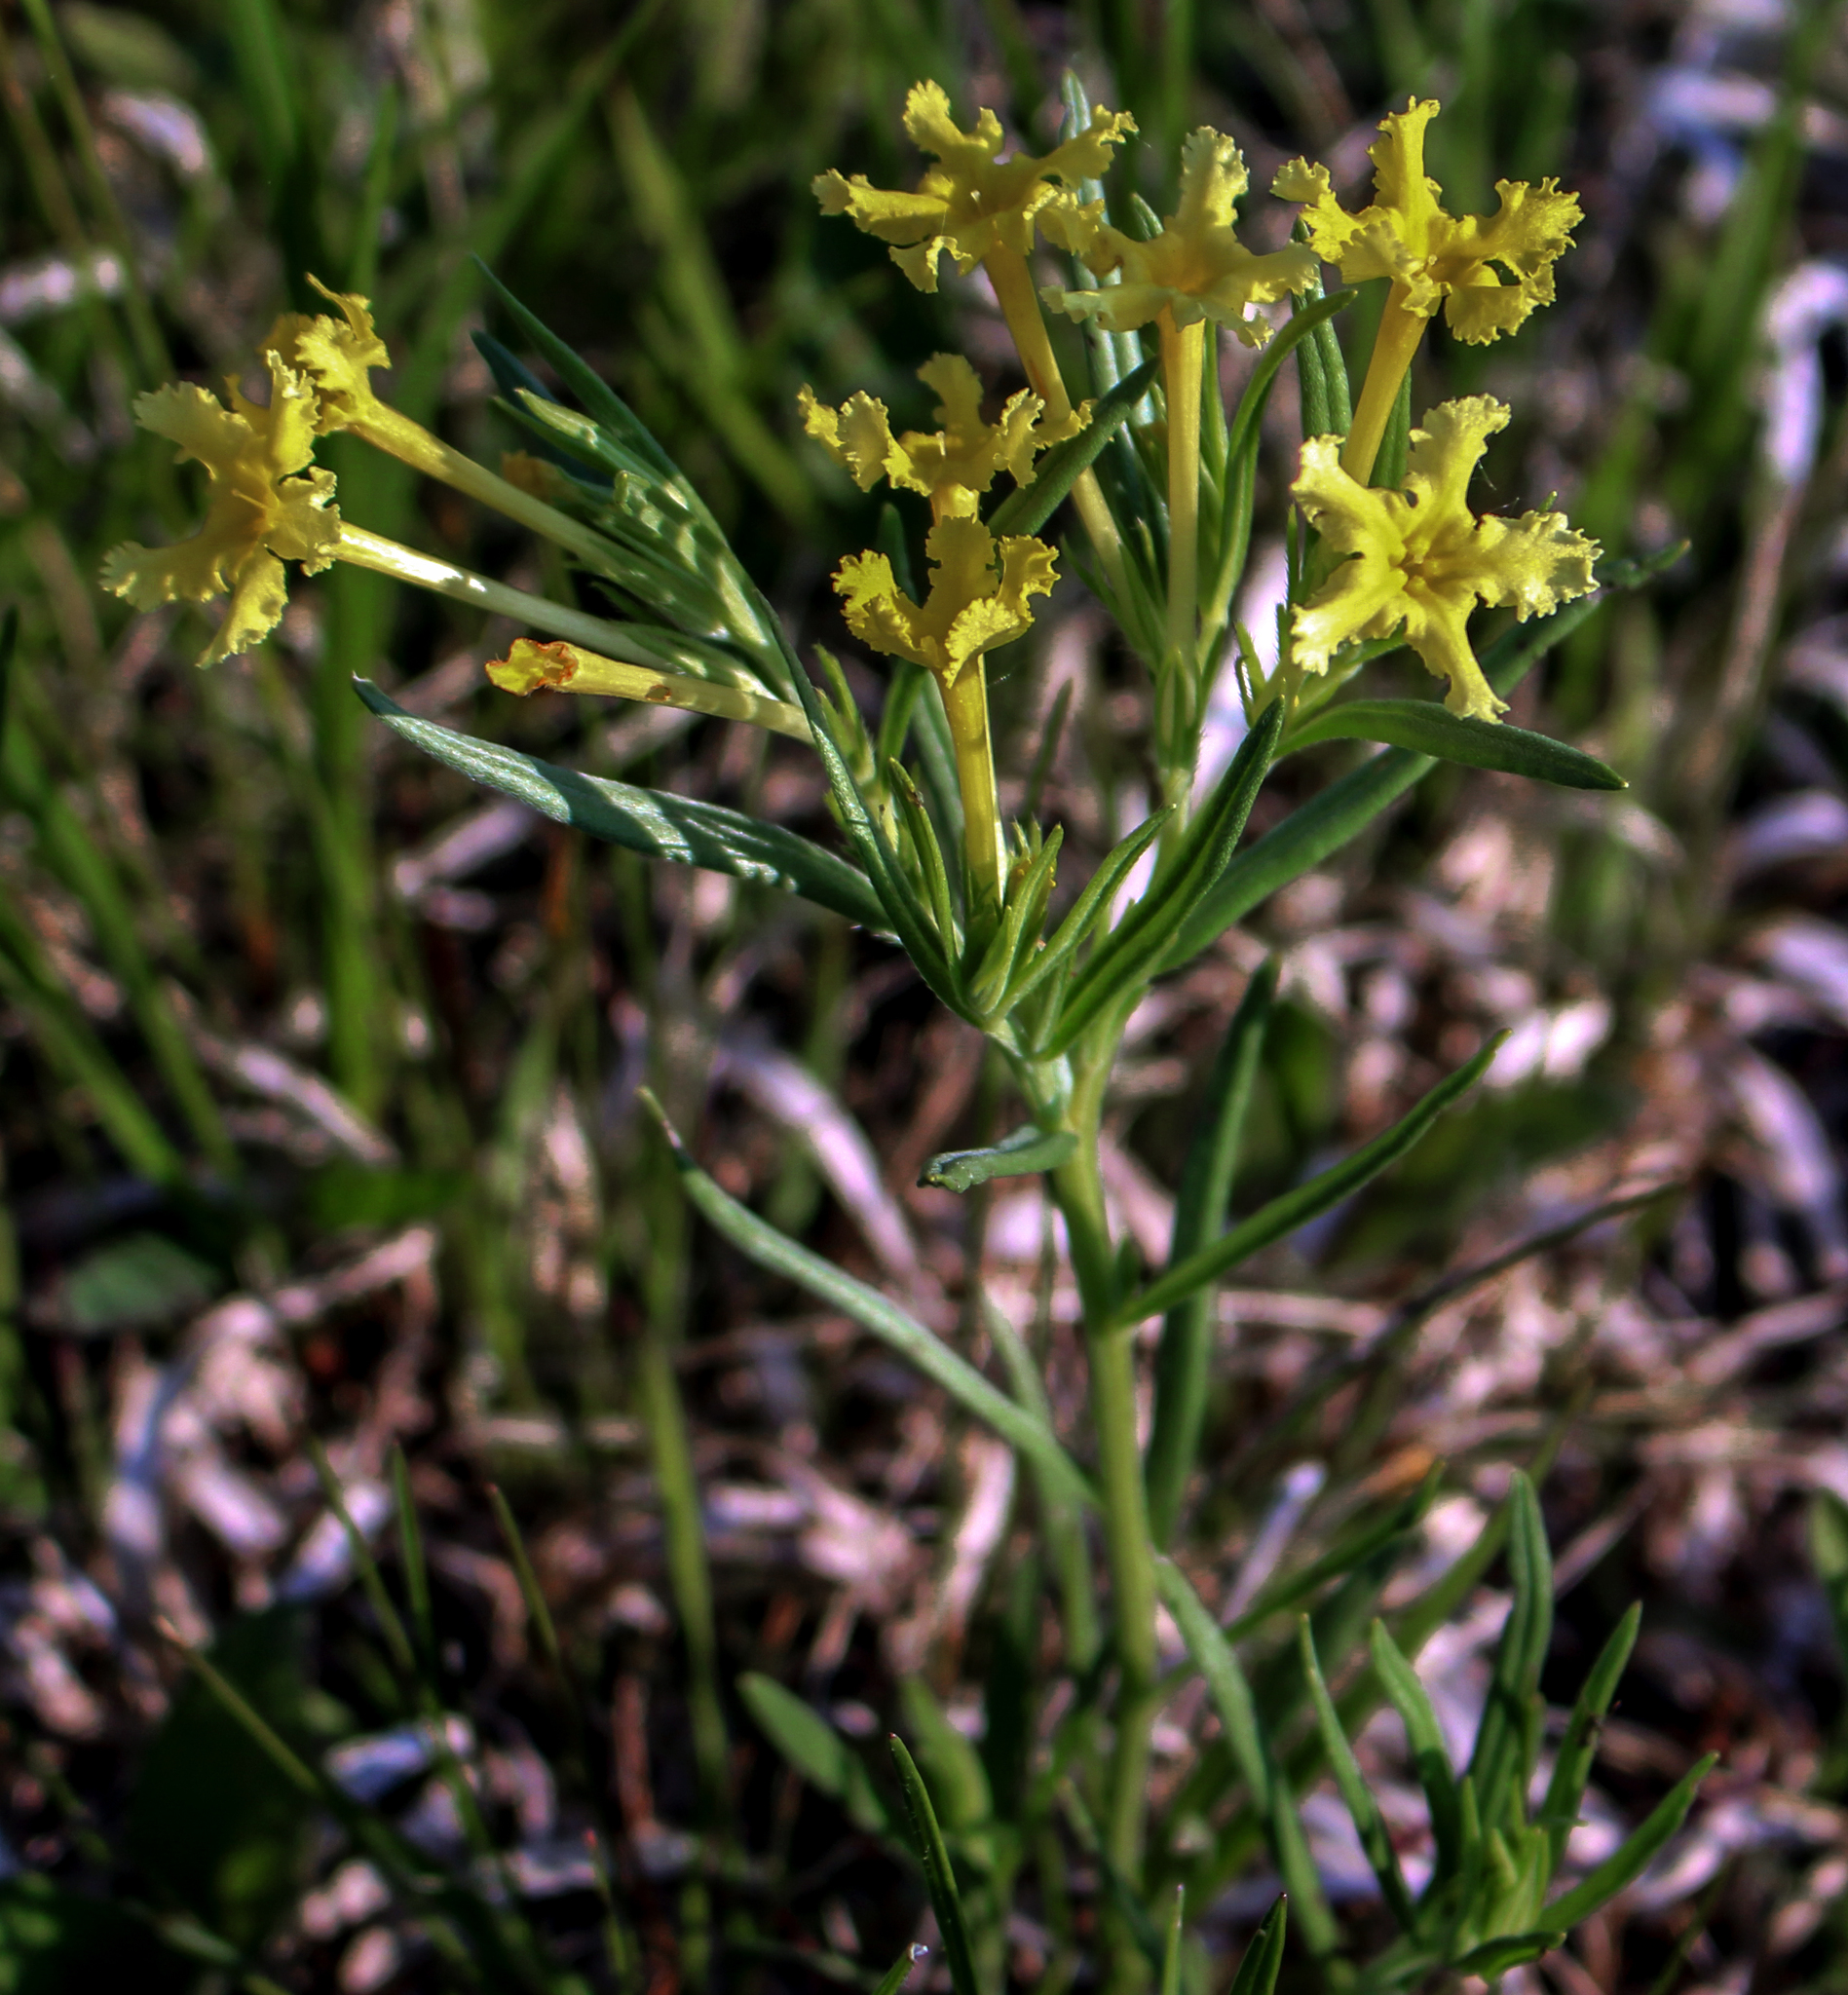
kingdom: Plantae
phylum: Tracheophyta
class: Magnoliopsida
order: Boraginales
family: Boraginaceae
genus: Lithospermum
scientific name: Lithospermum incisum
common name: Fringed gromwell
